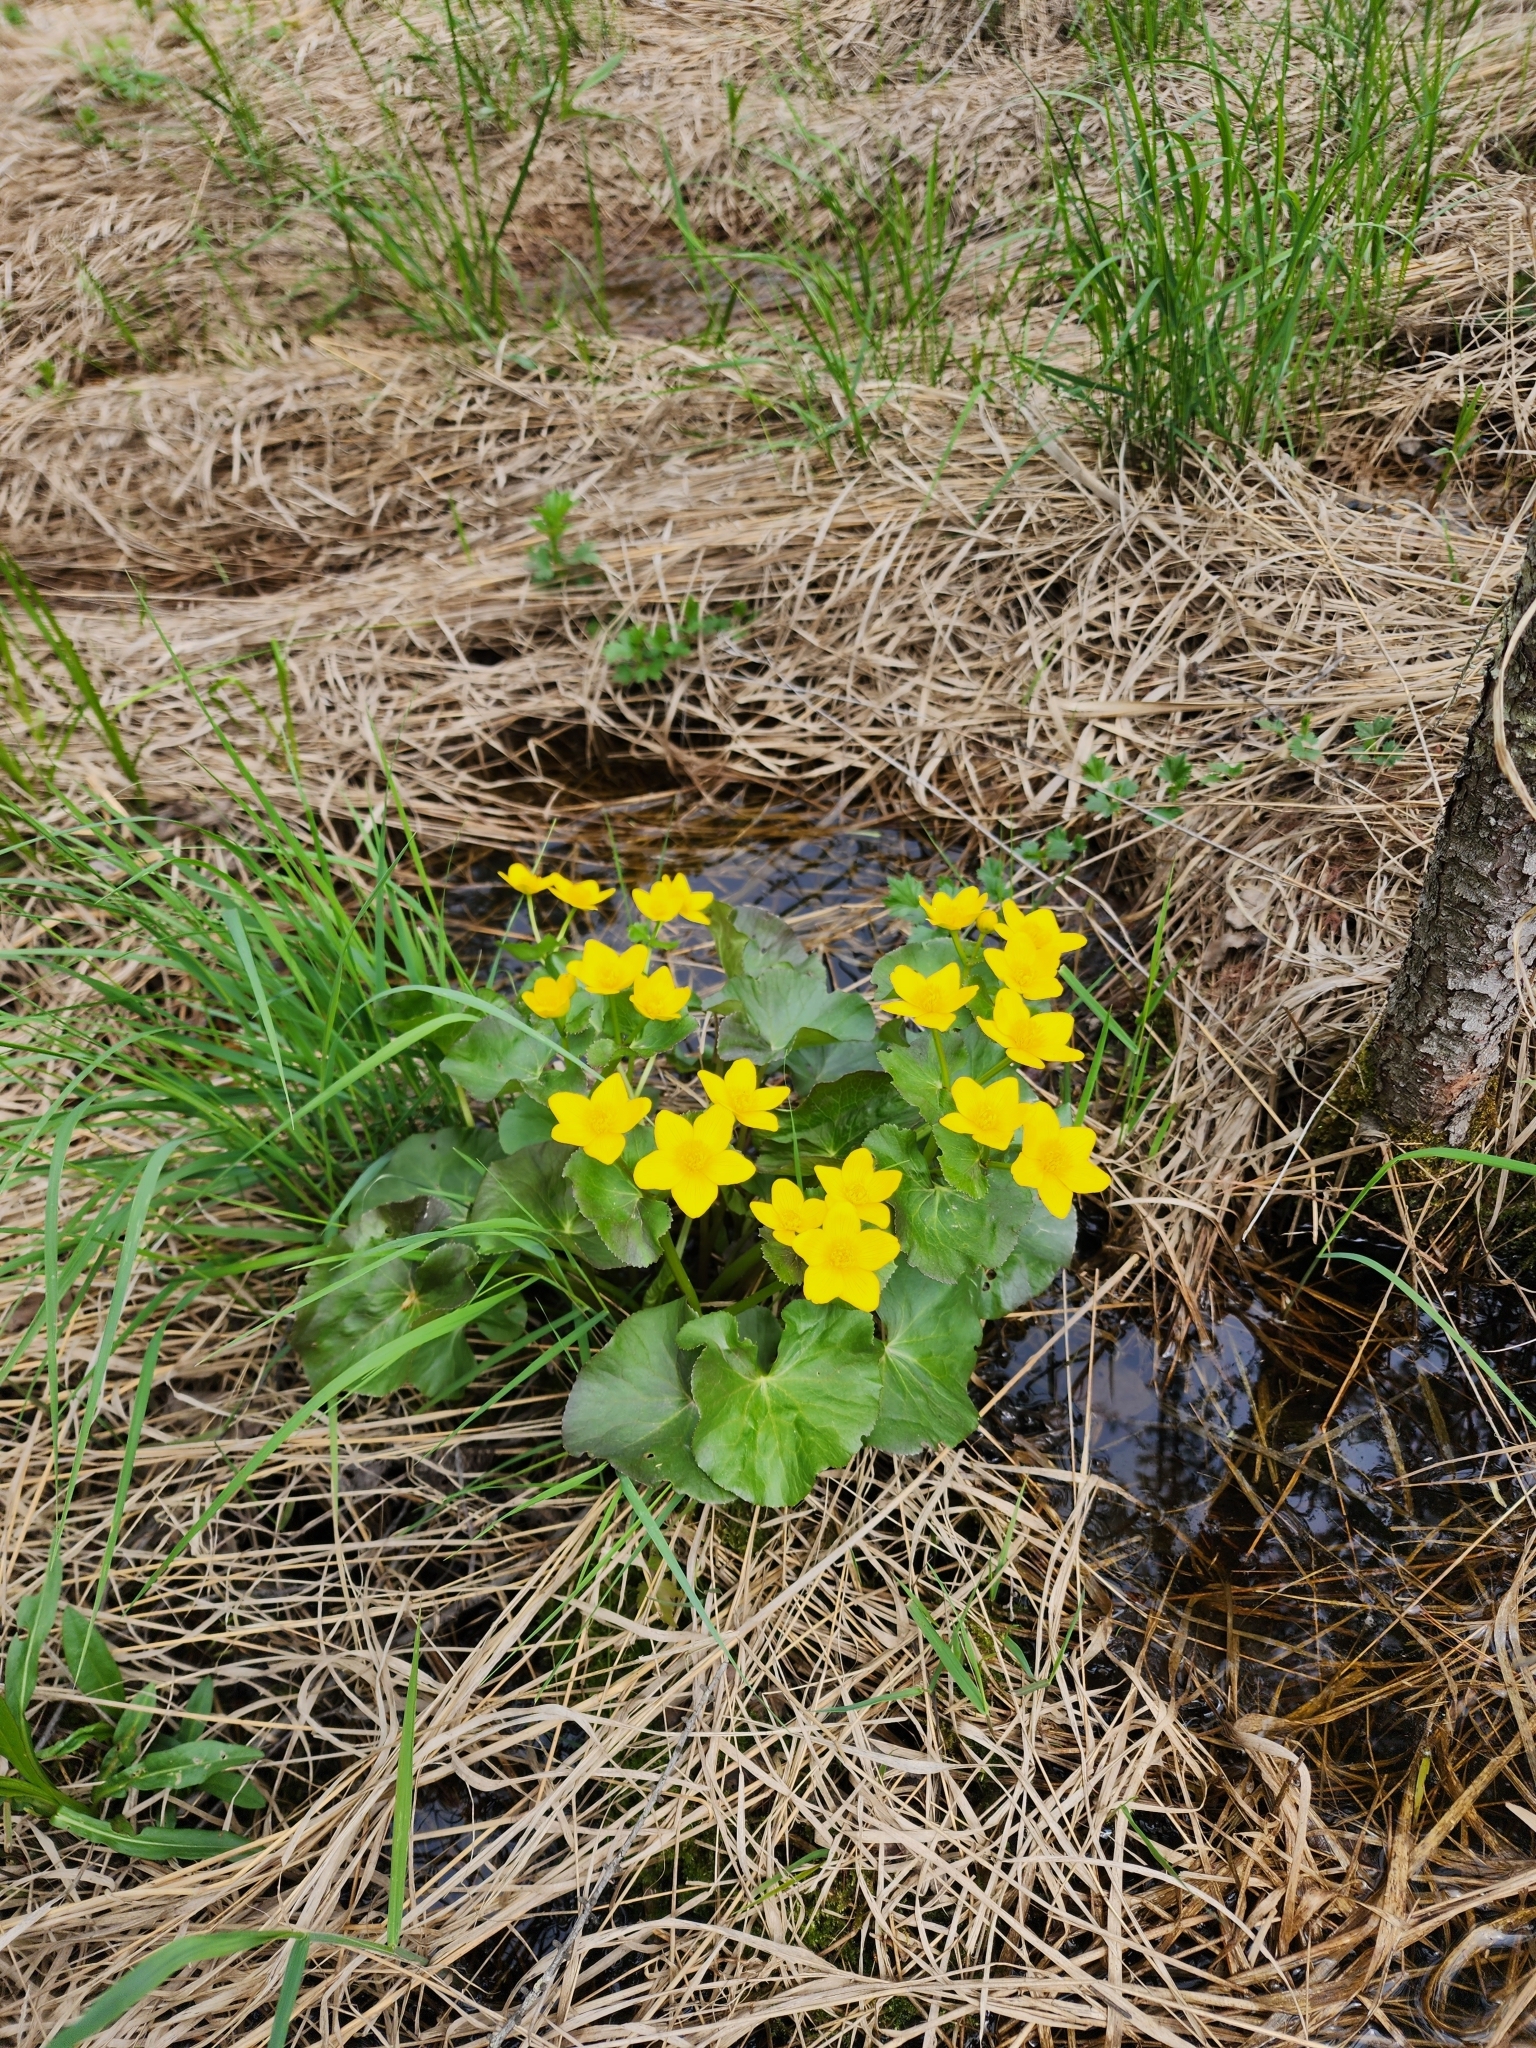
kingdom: Plantae
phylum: Tracheophyta
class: Magnoliopsida
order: Ranunculales
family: Ranunculaceae
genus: Caltha
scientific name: Caltha palustris
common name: Marsh marigold
